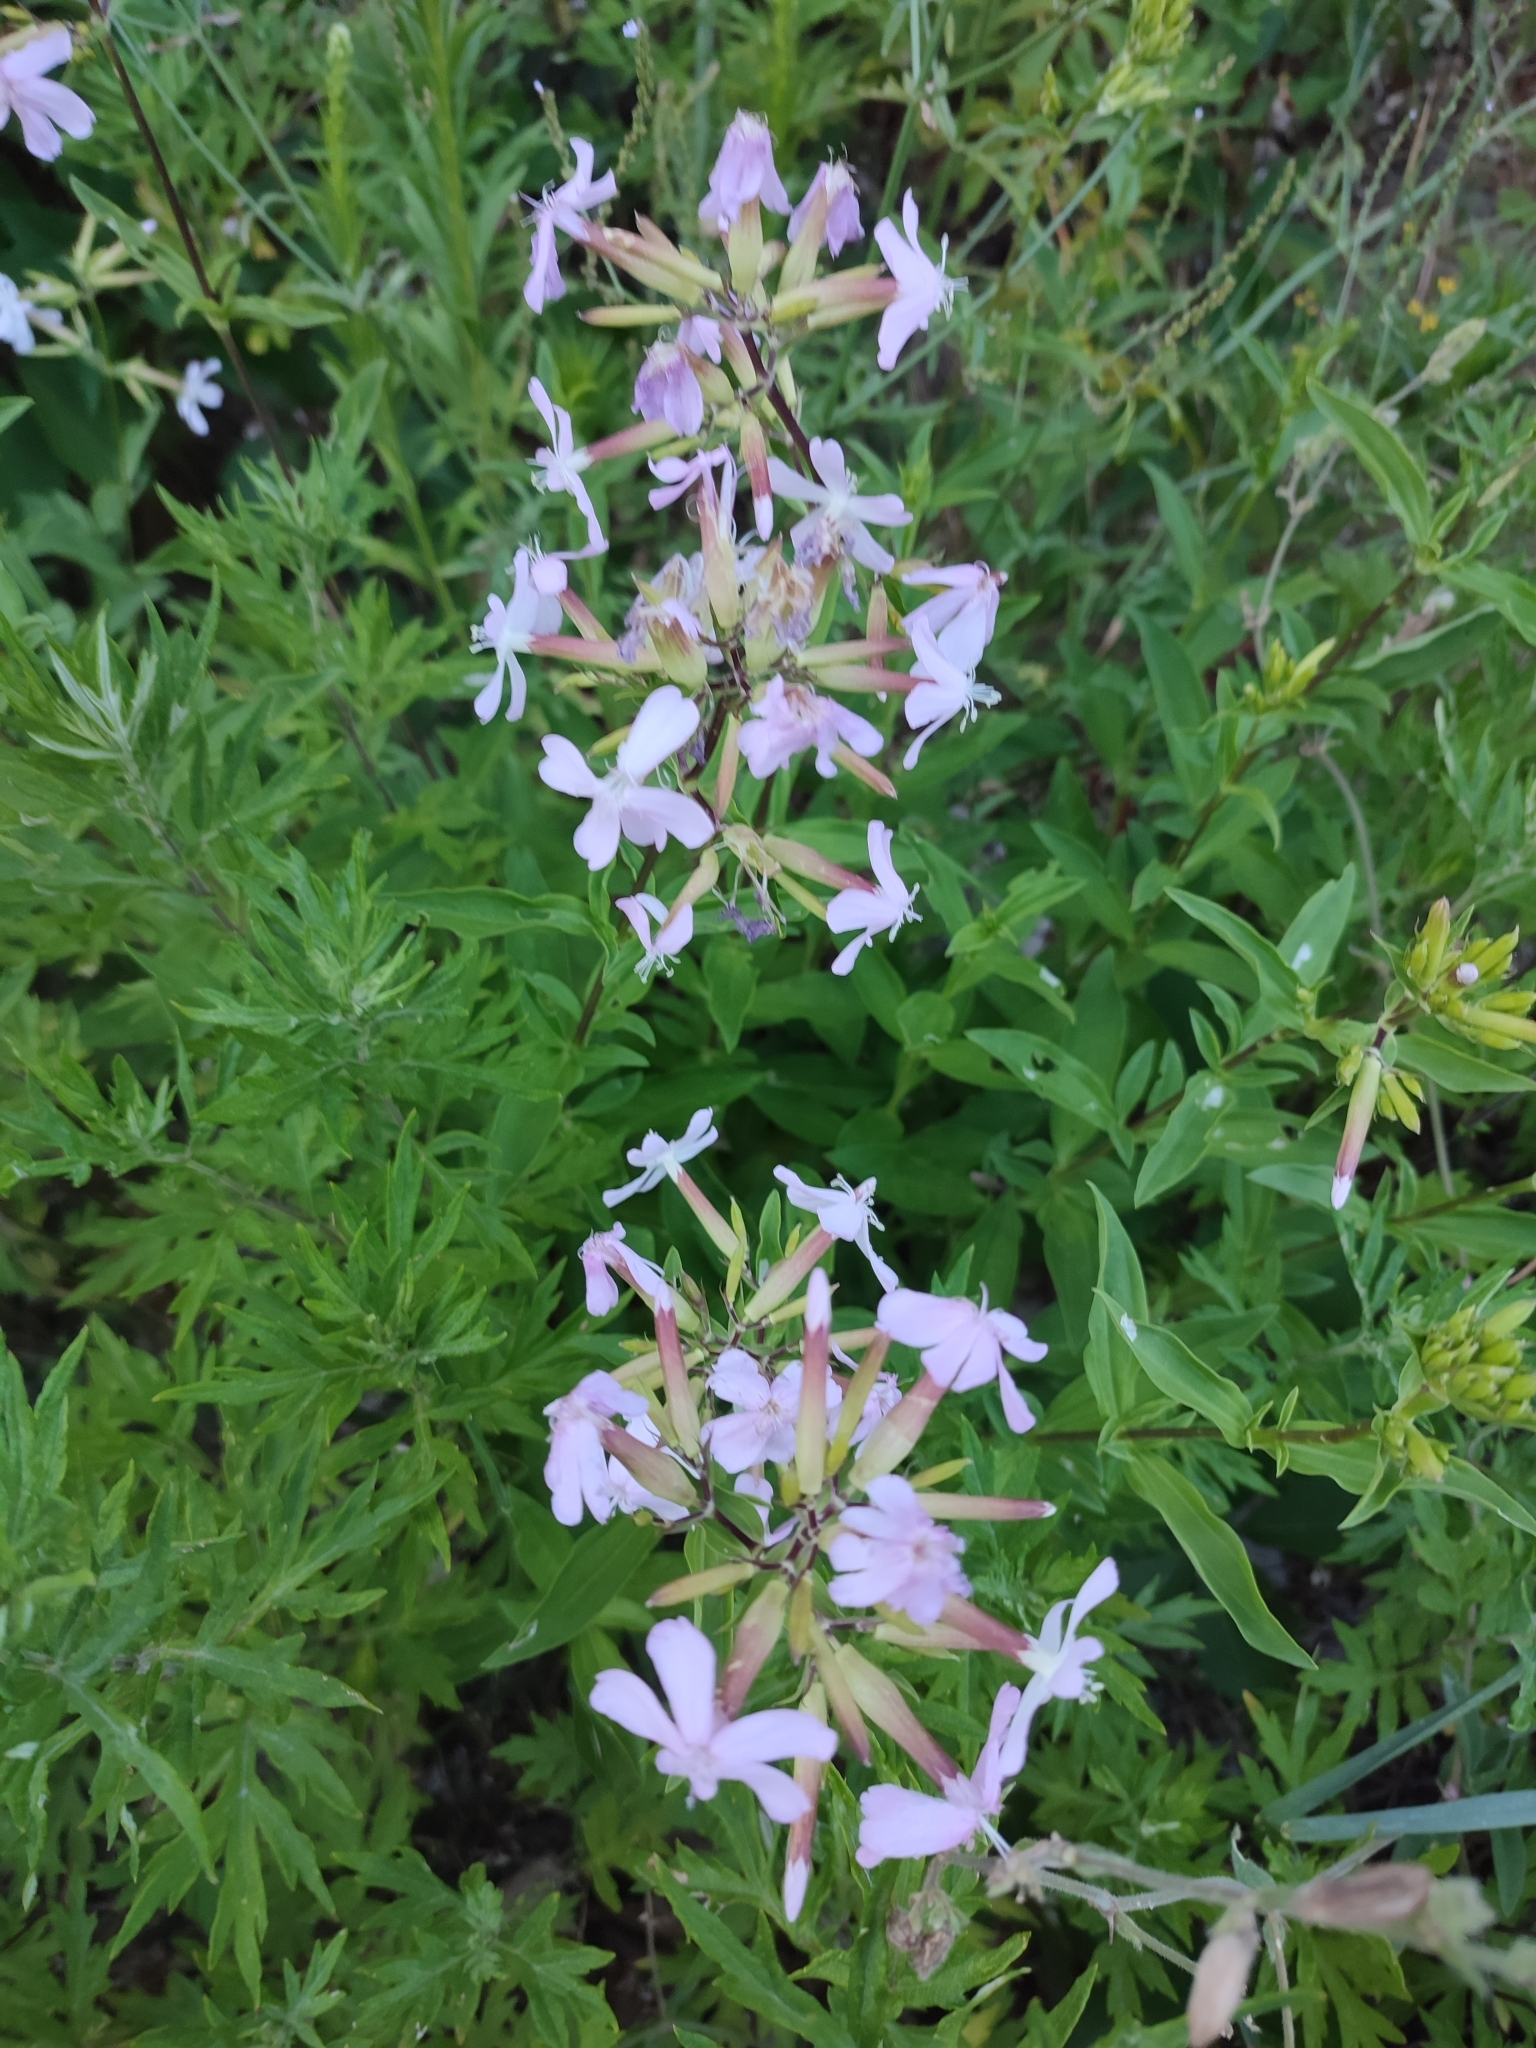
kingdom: Plantae
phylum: Tracheophyta
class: Magnoliopsida
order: Caryophyllales
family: Caryophyllaceae
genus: Saponaria
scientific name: Saponaria officinalis
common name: Soapwort
